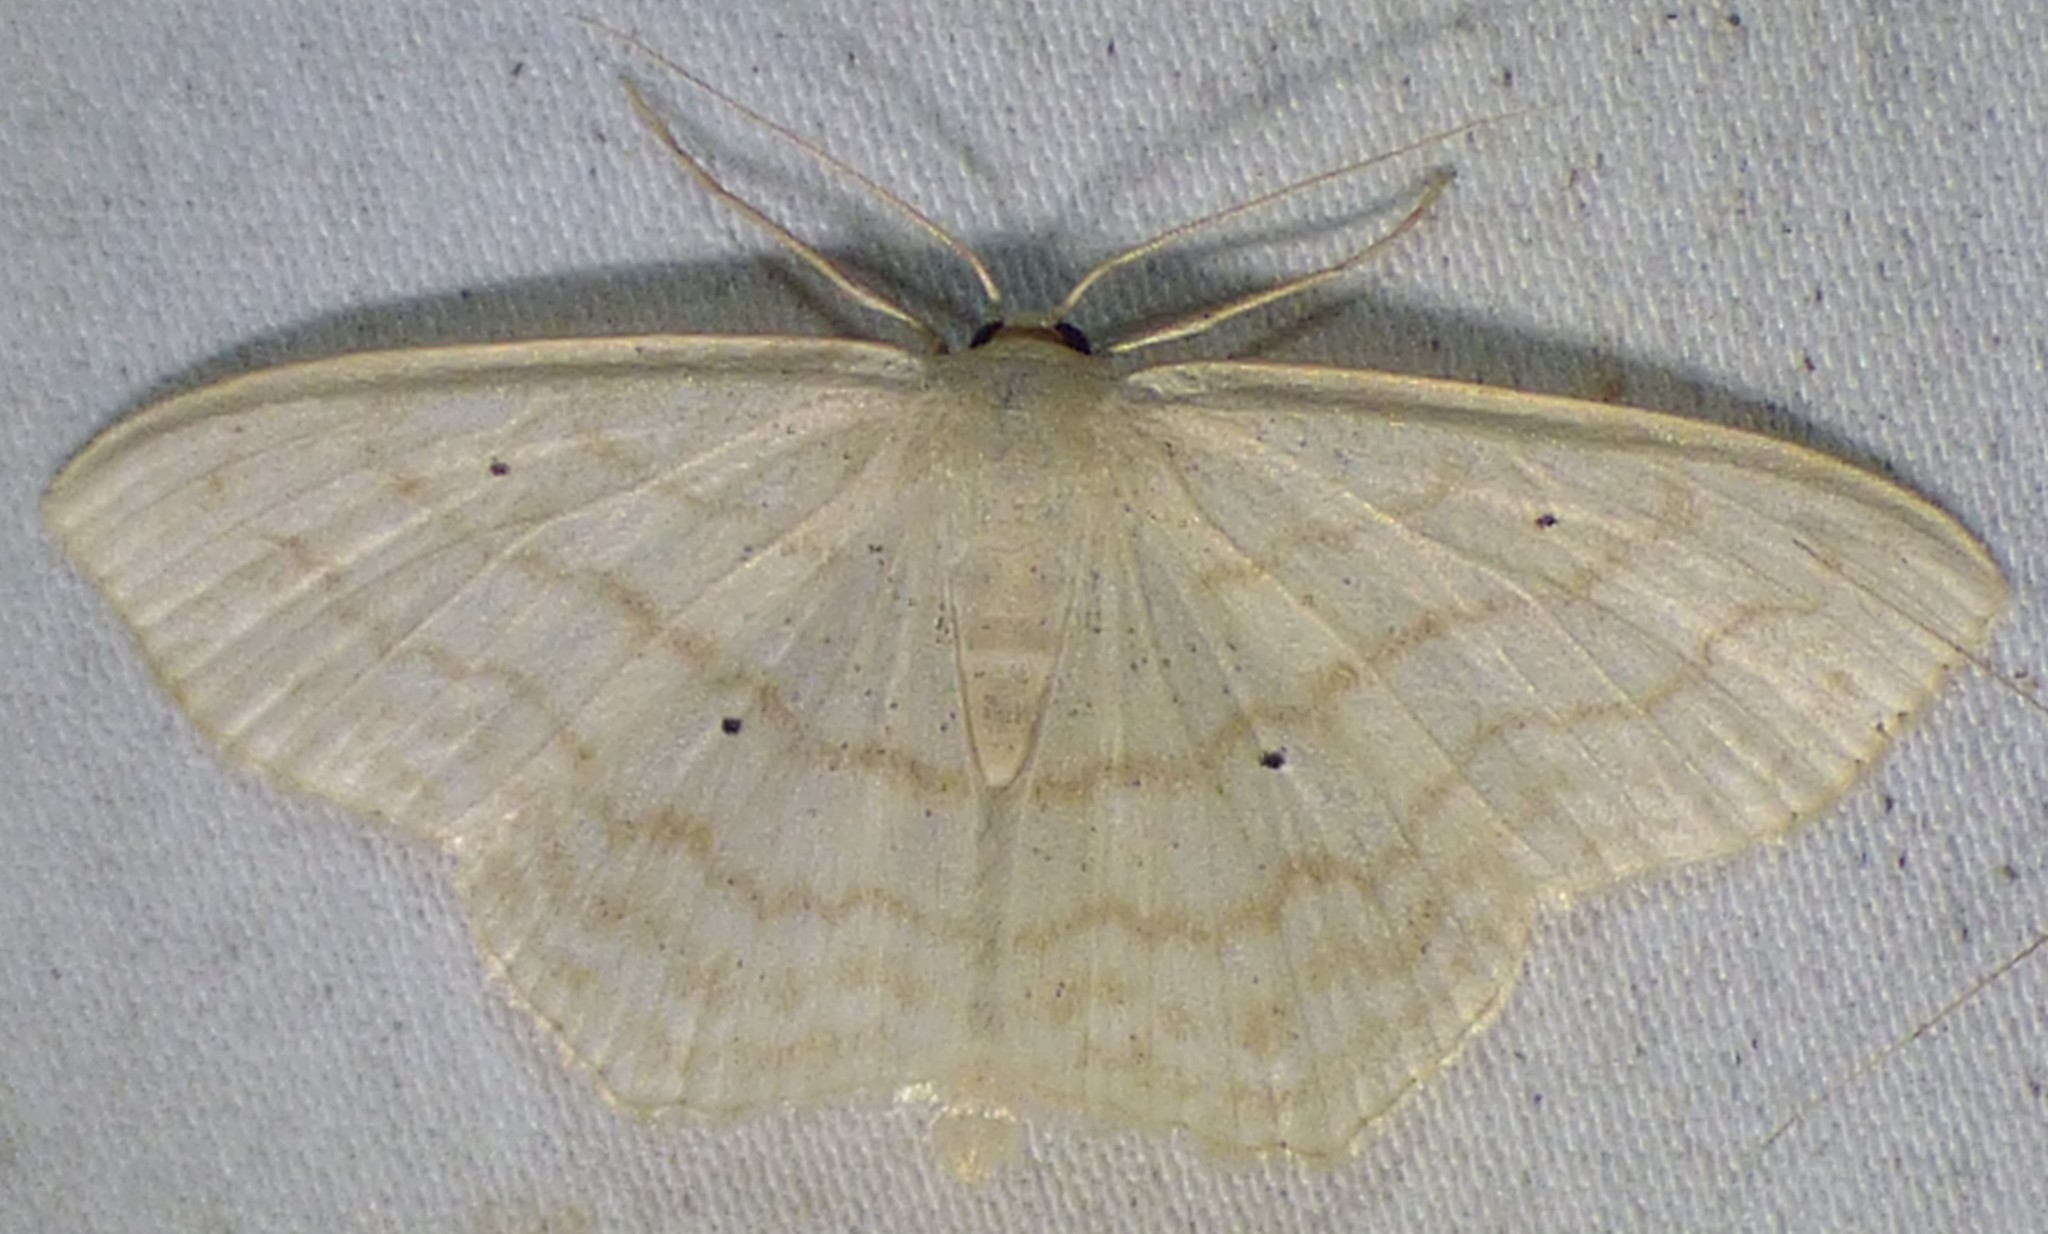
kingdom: Animalia
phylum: Arthropoda
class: Insecta
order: Lepidoptera
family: Geometridae
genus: Scopula
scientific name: Scopula limboundata
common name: Large lace border
